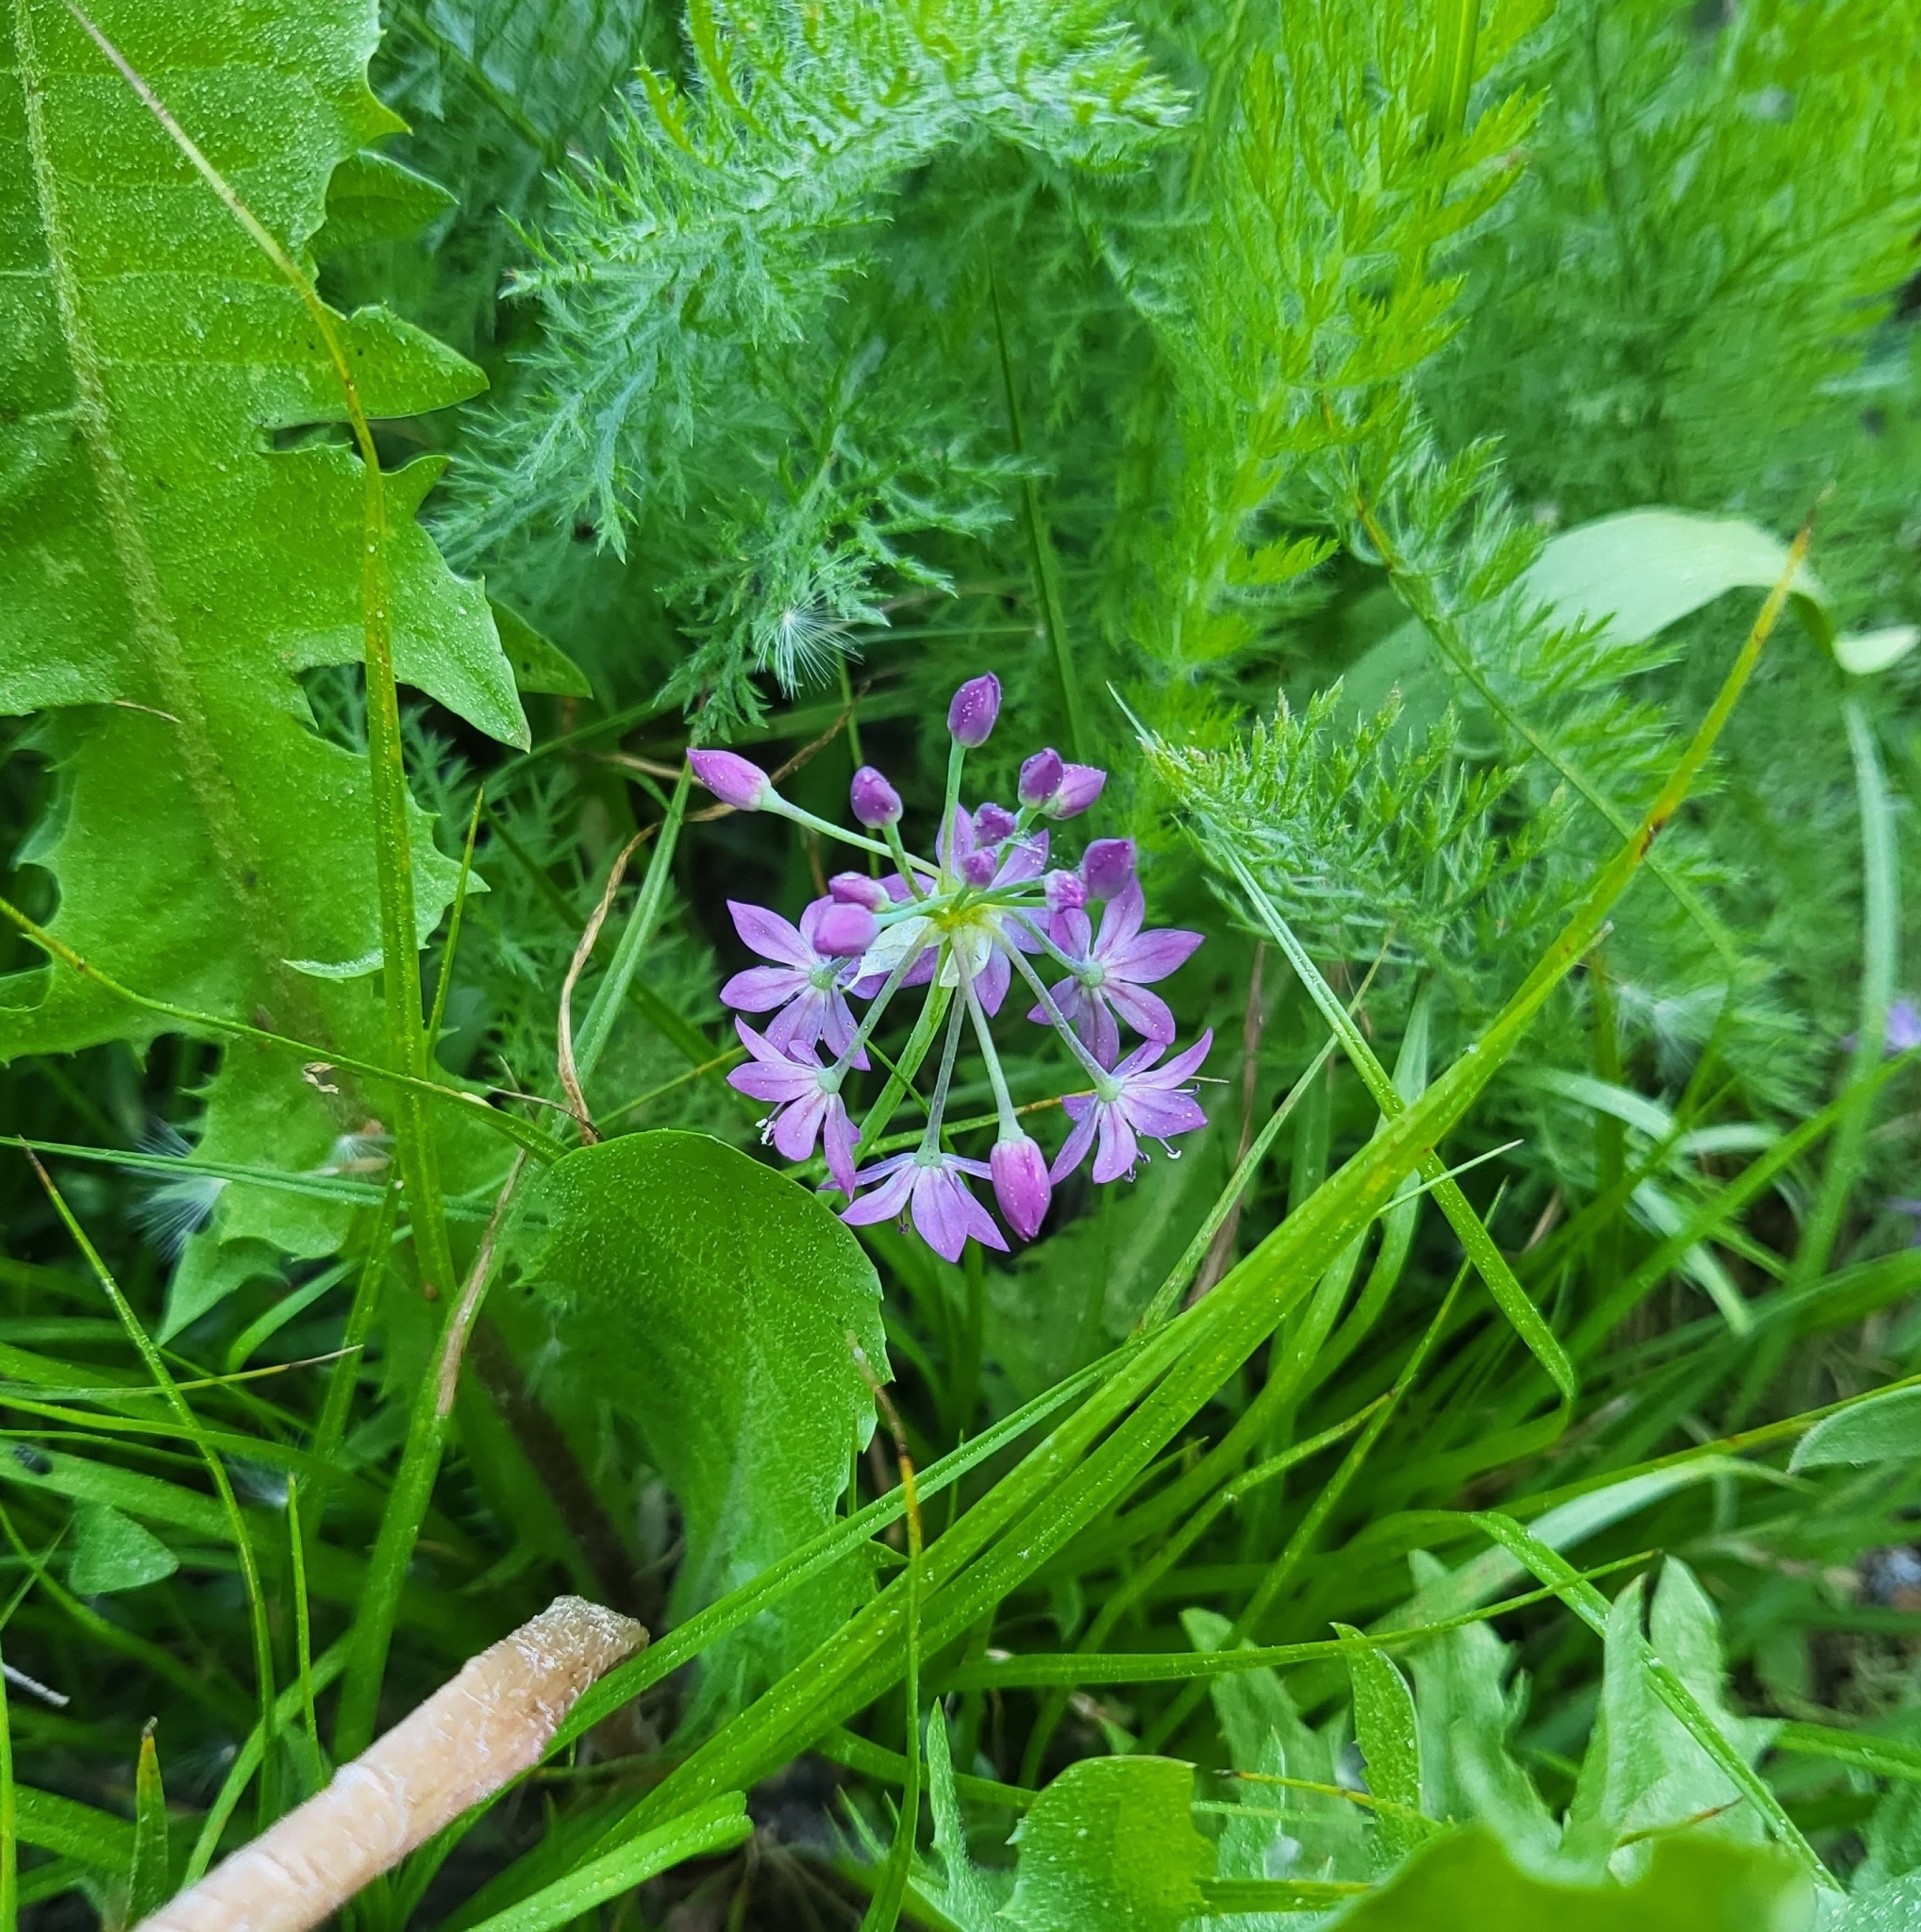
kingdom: Plantae
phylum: Tracheophyta
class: Liliopsida
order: Asparagales
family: Amaryllidaceae
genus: Allium
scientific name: Allium campanulatum
